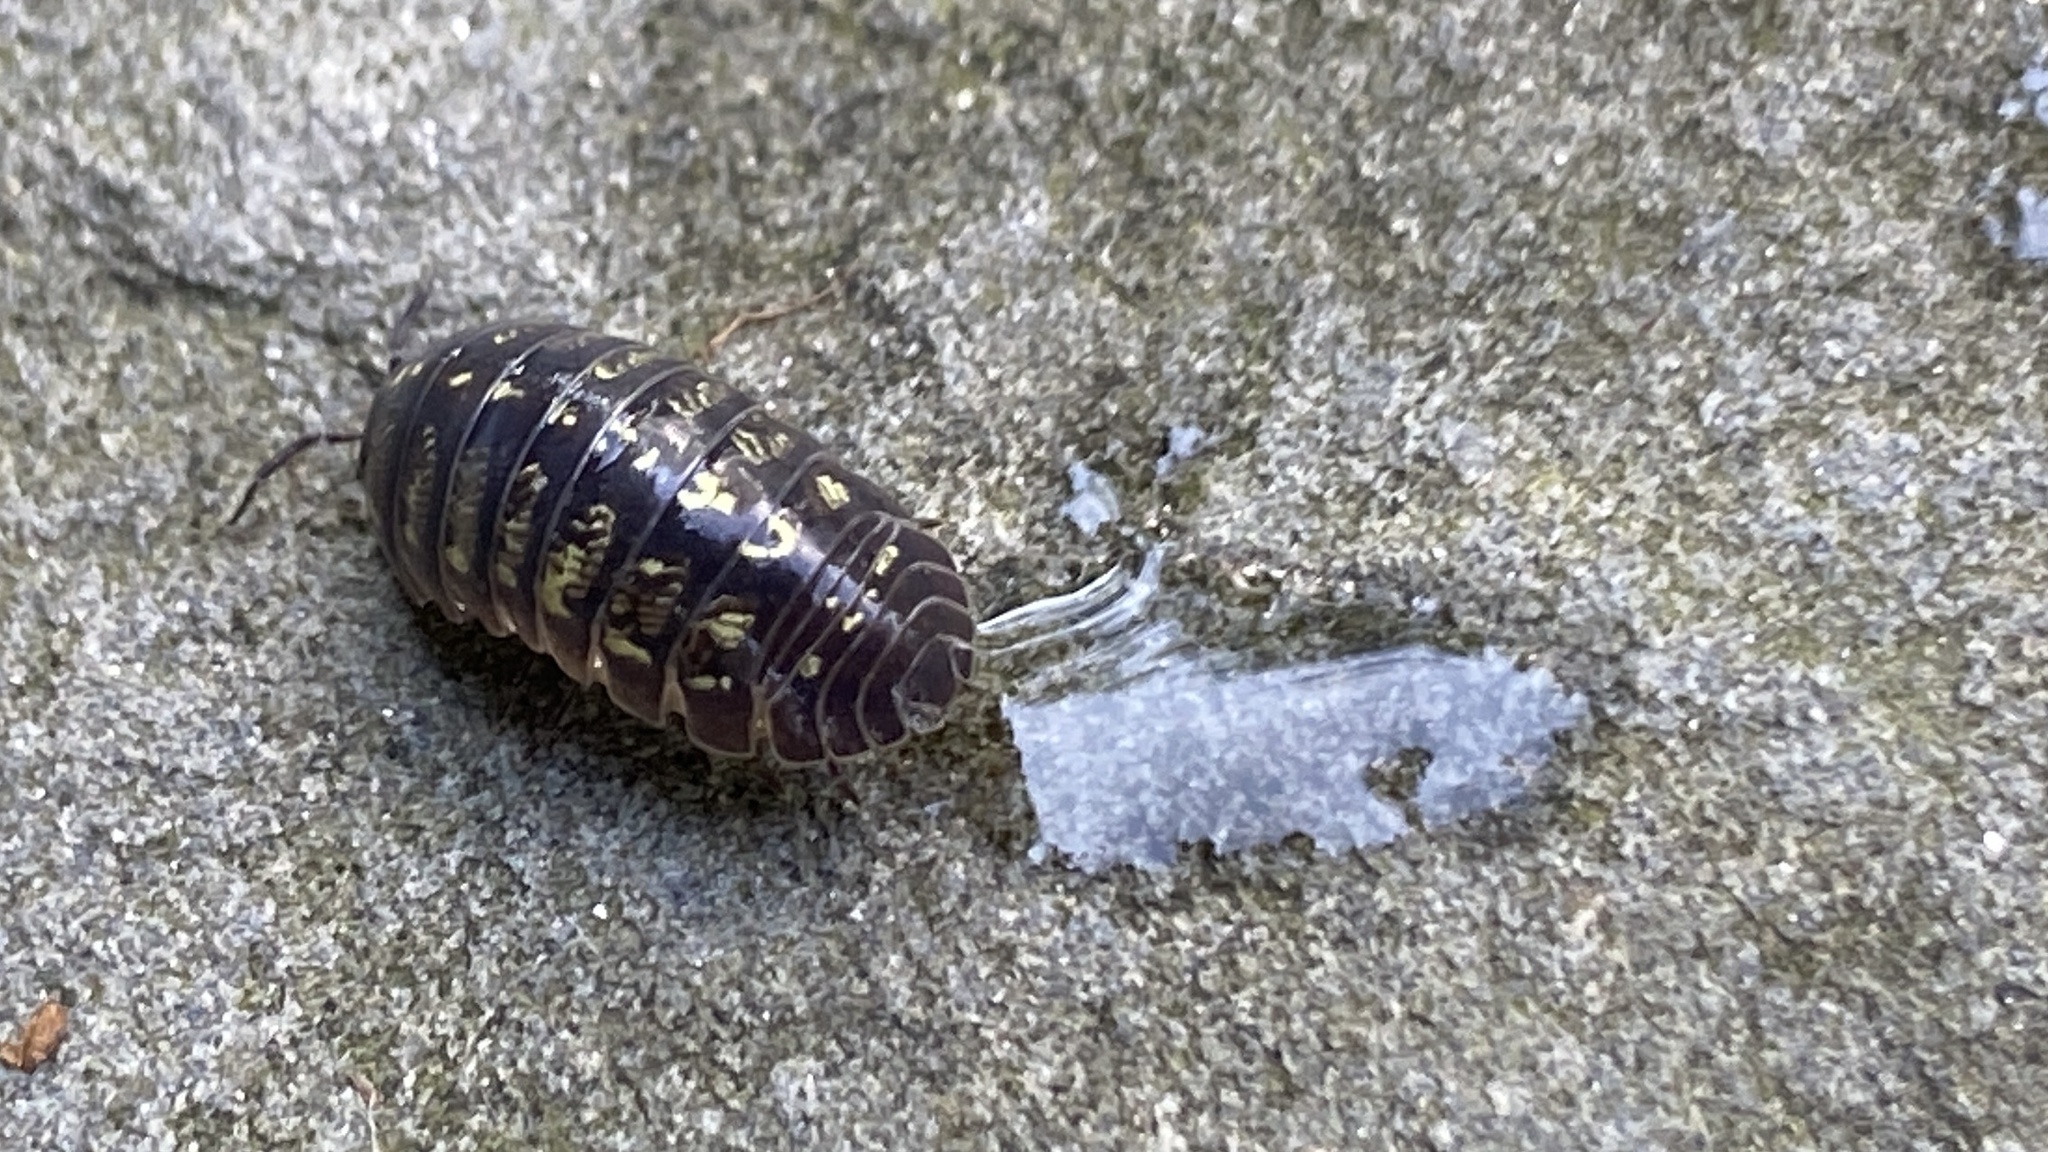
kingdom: Animalia
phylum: Arthropoda
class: Malacostraca
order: Isopoda
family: Armadillidiidae
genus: Armadillidium
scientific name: Armadillidium vulgare
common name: Common pill woodlouse
